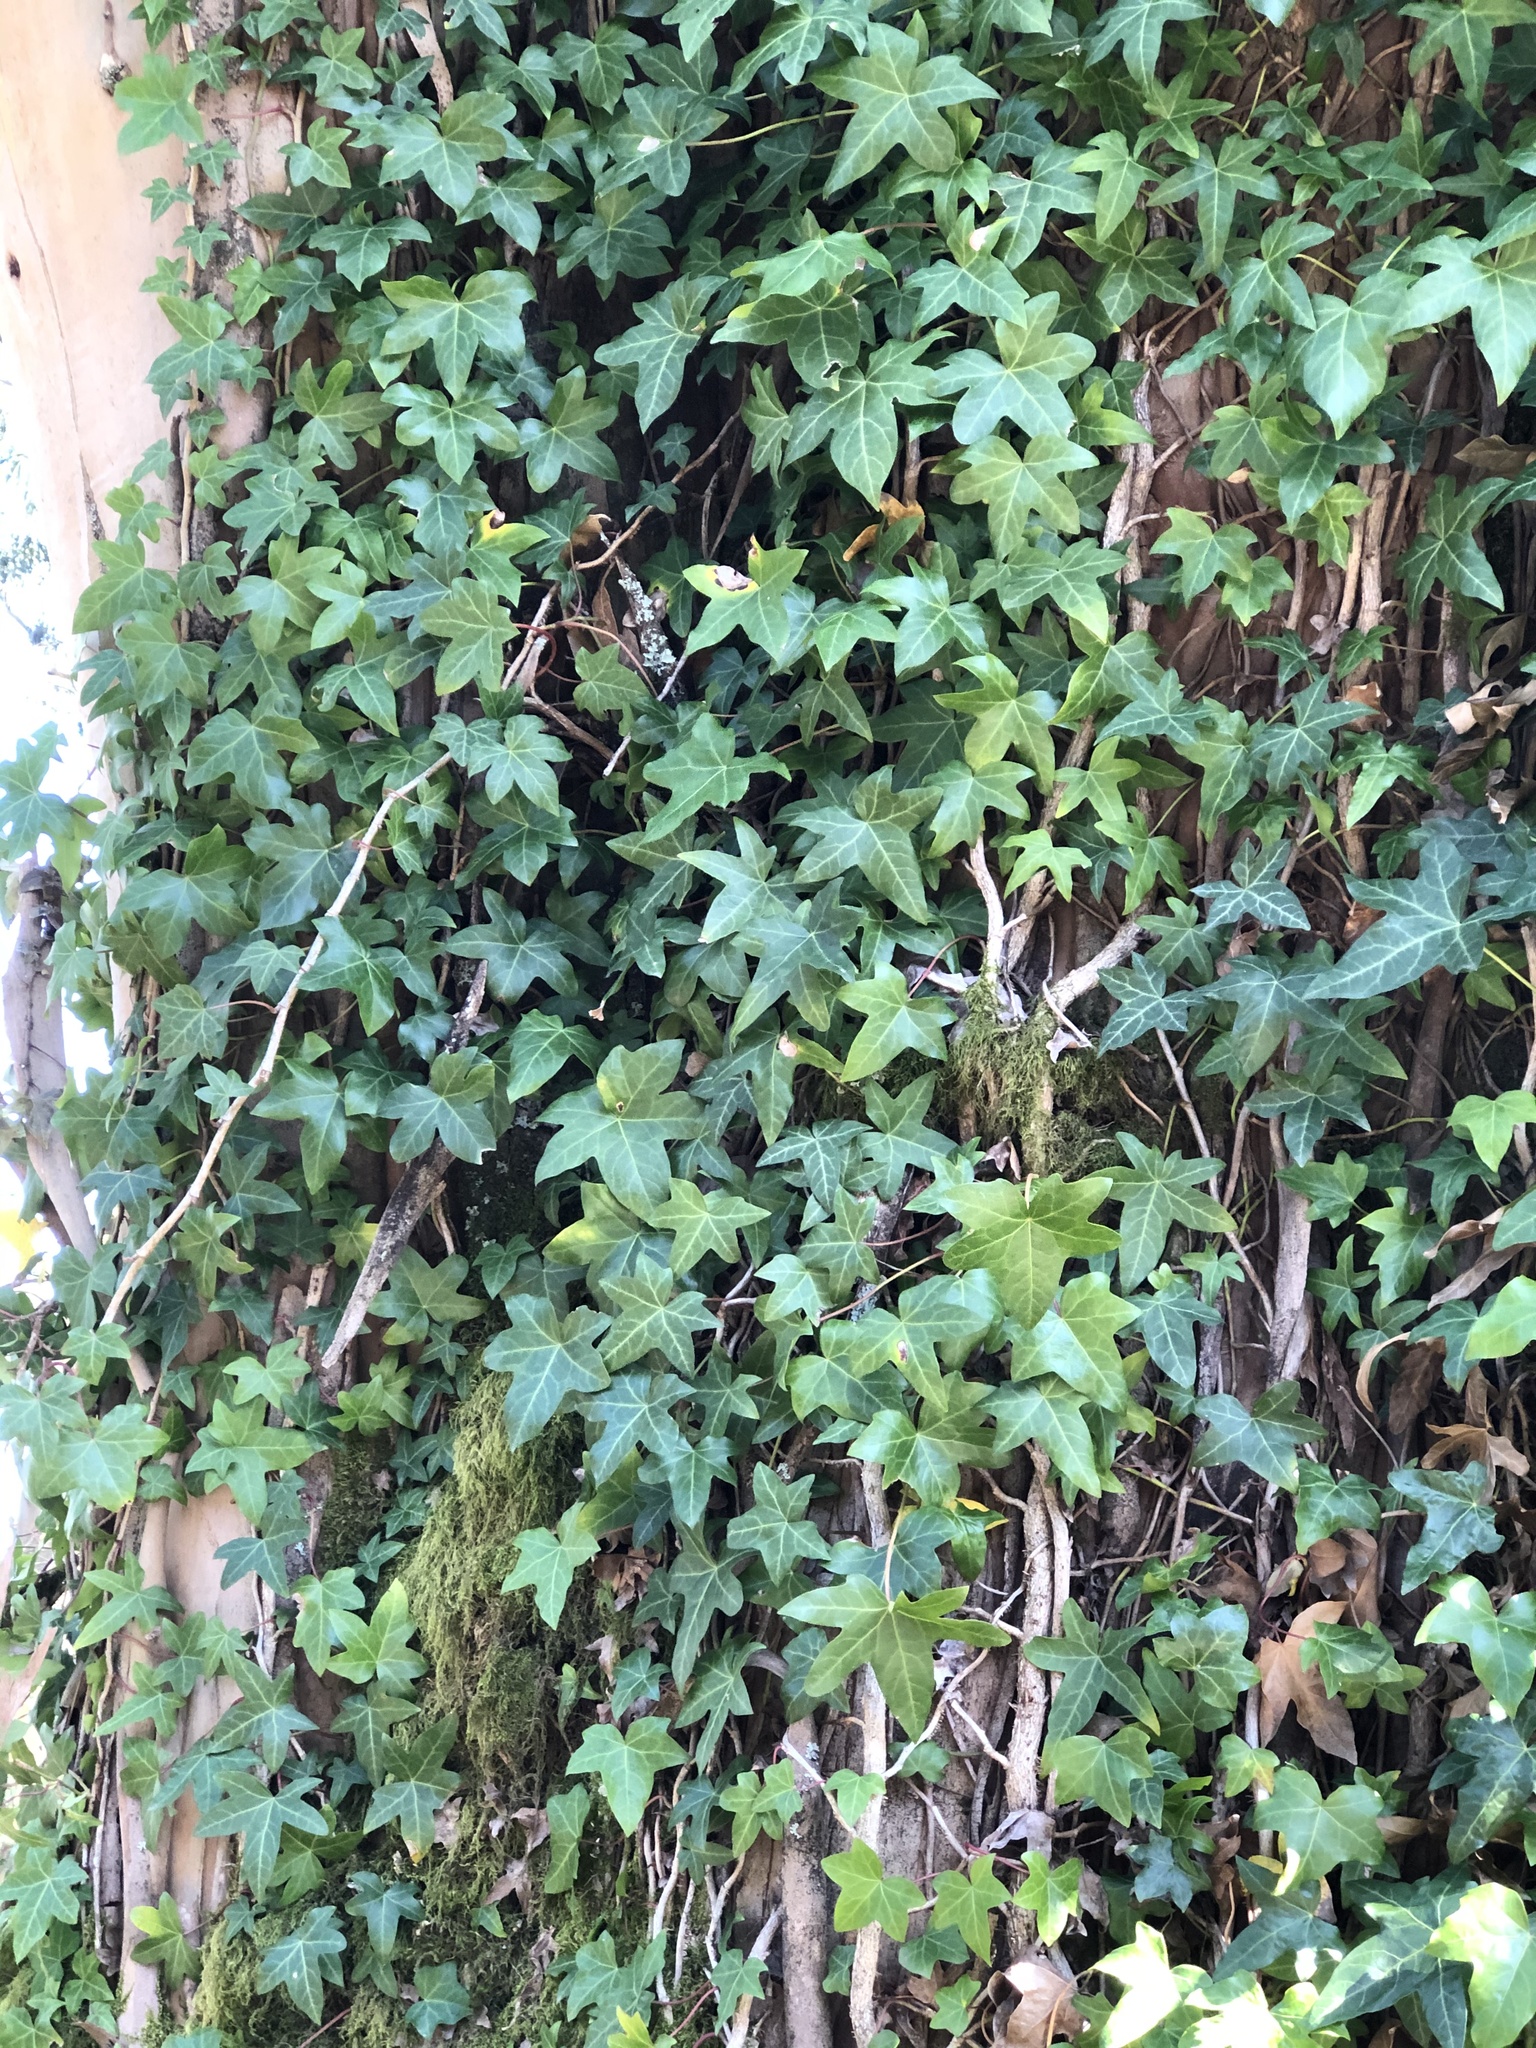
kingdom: Plantae
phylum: Tracheophyta
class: Magnoliopsida
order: Apiales
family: Araliaceae
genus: Hedera
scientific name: Hedera helix
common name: Ivy
